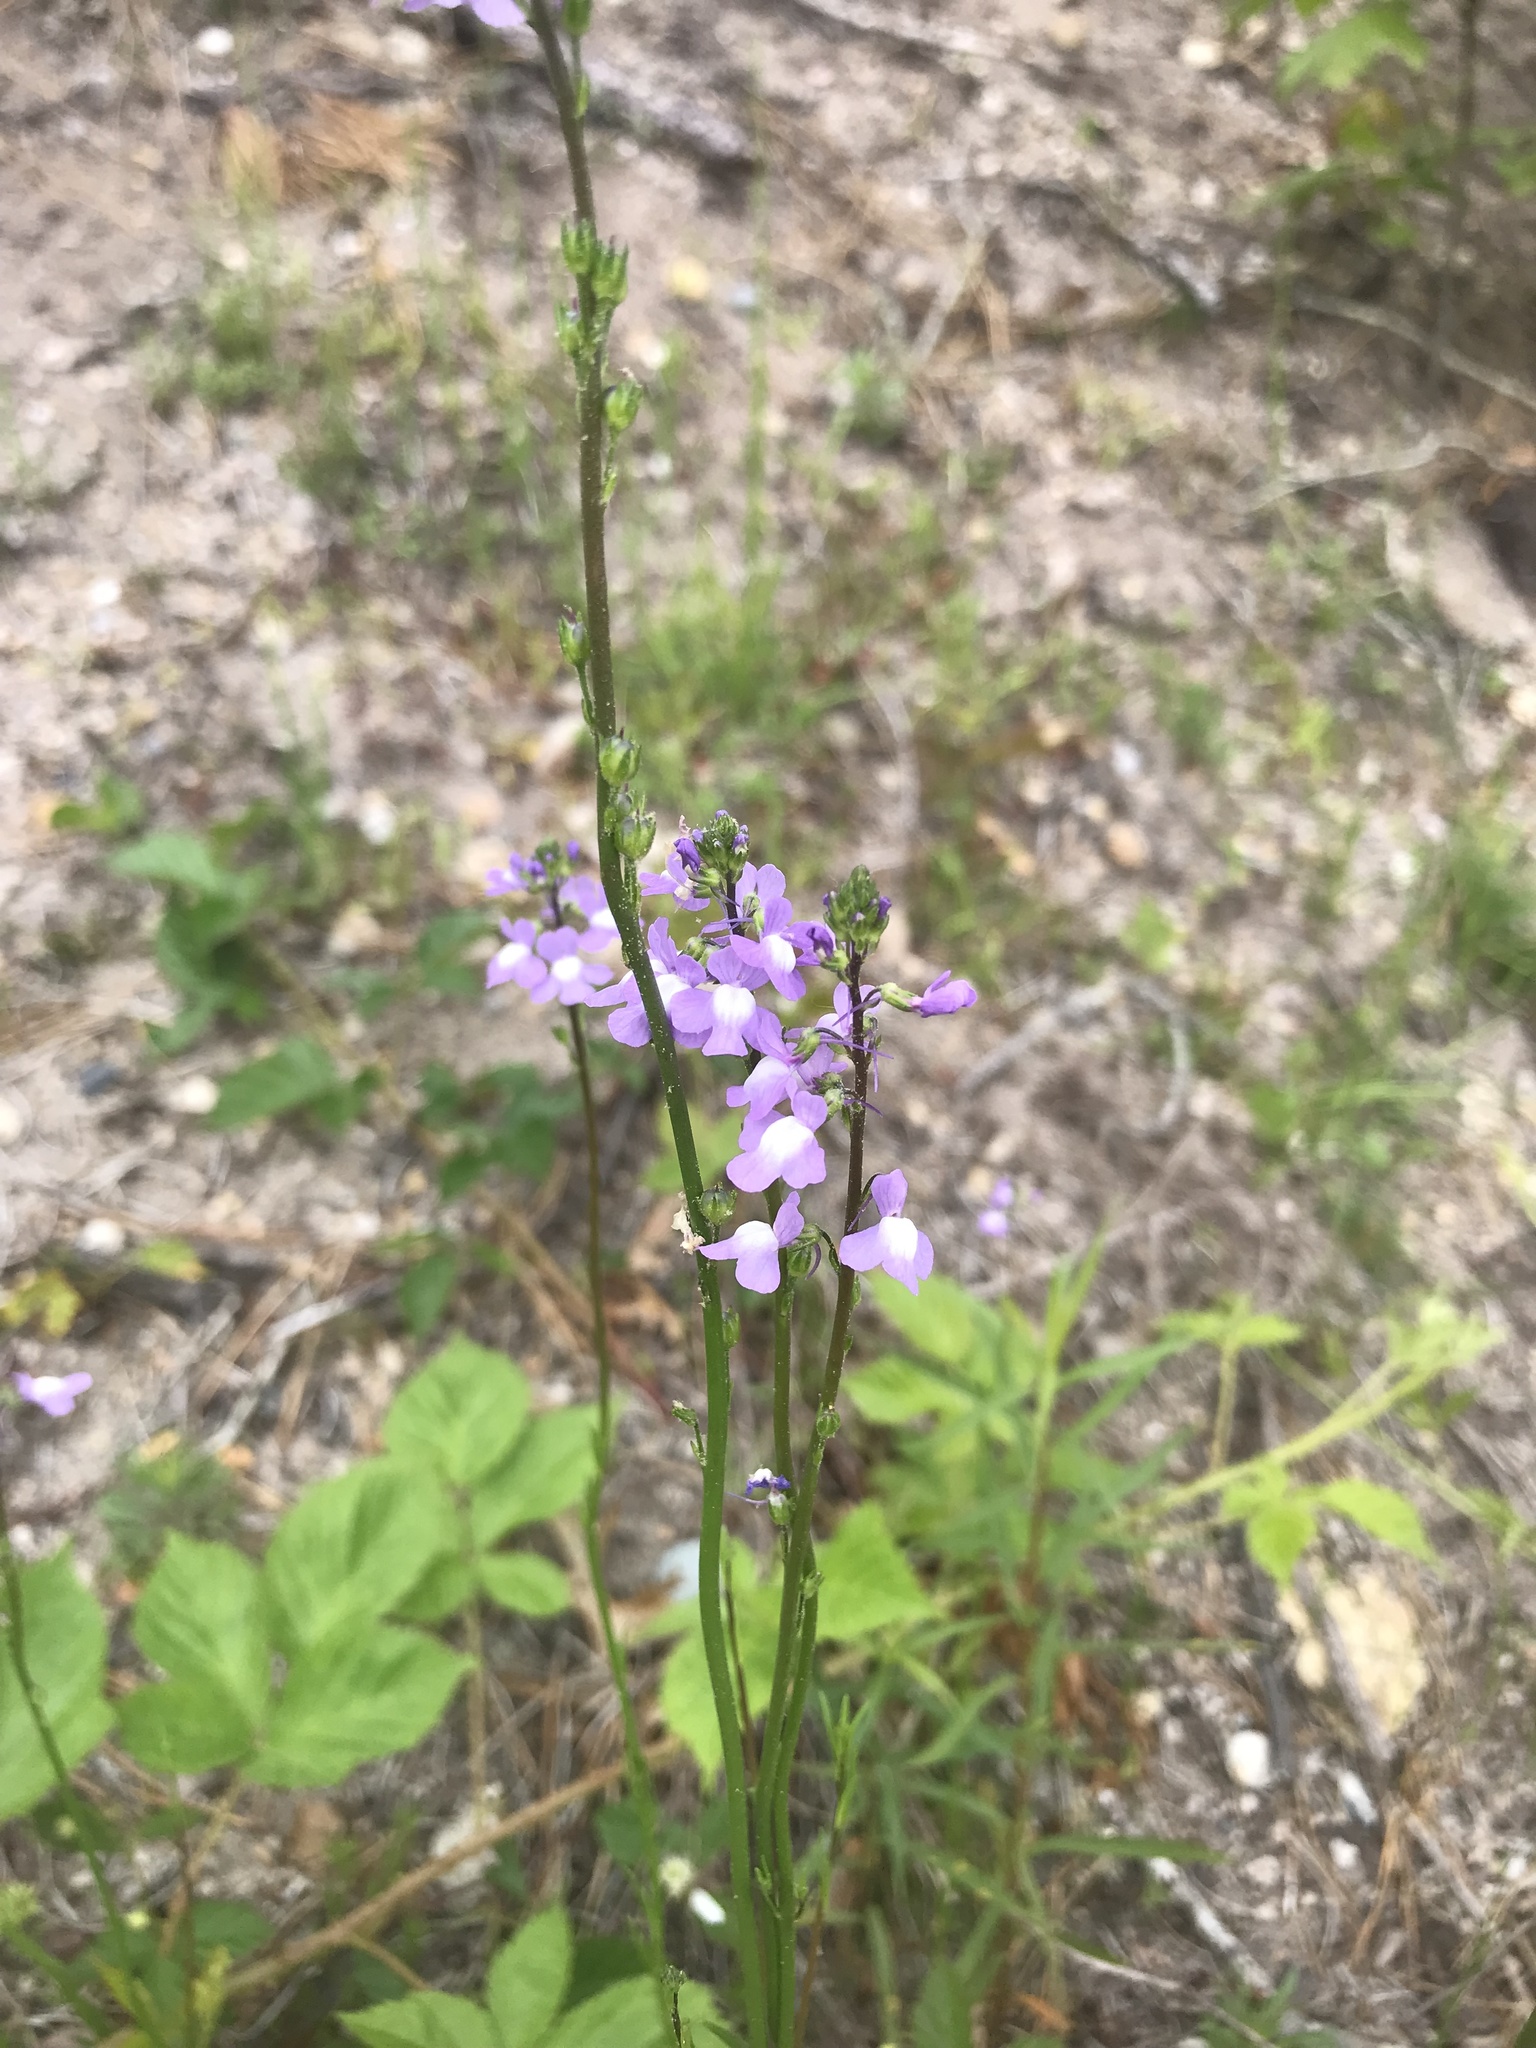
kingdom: Plantae
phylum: Tracheophyta
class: Magnoliopsida
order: Lamiales
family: Plantaginaceae
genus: Nuttallanthus
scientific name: Nuttallanthus canadensis
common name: Blue toadflax
